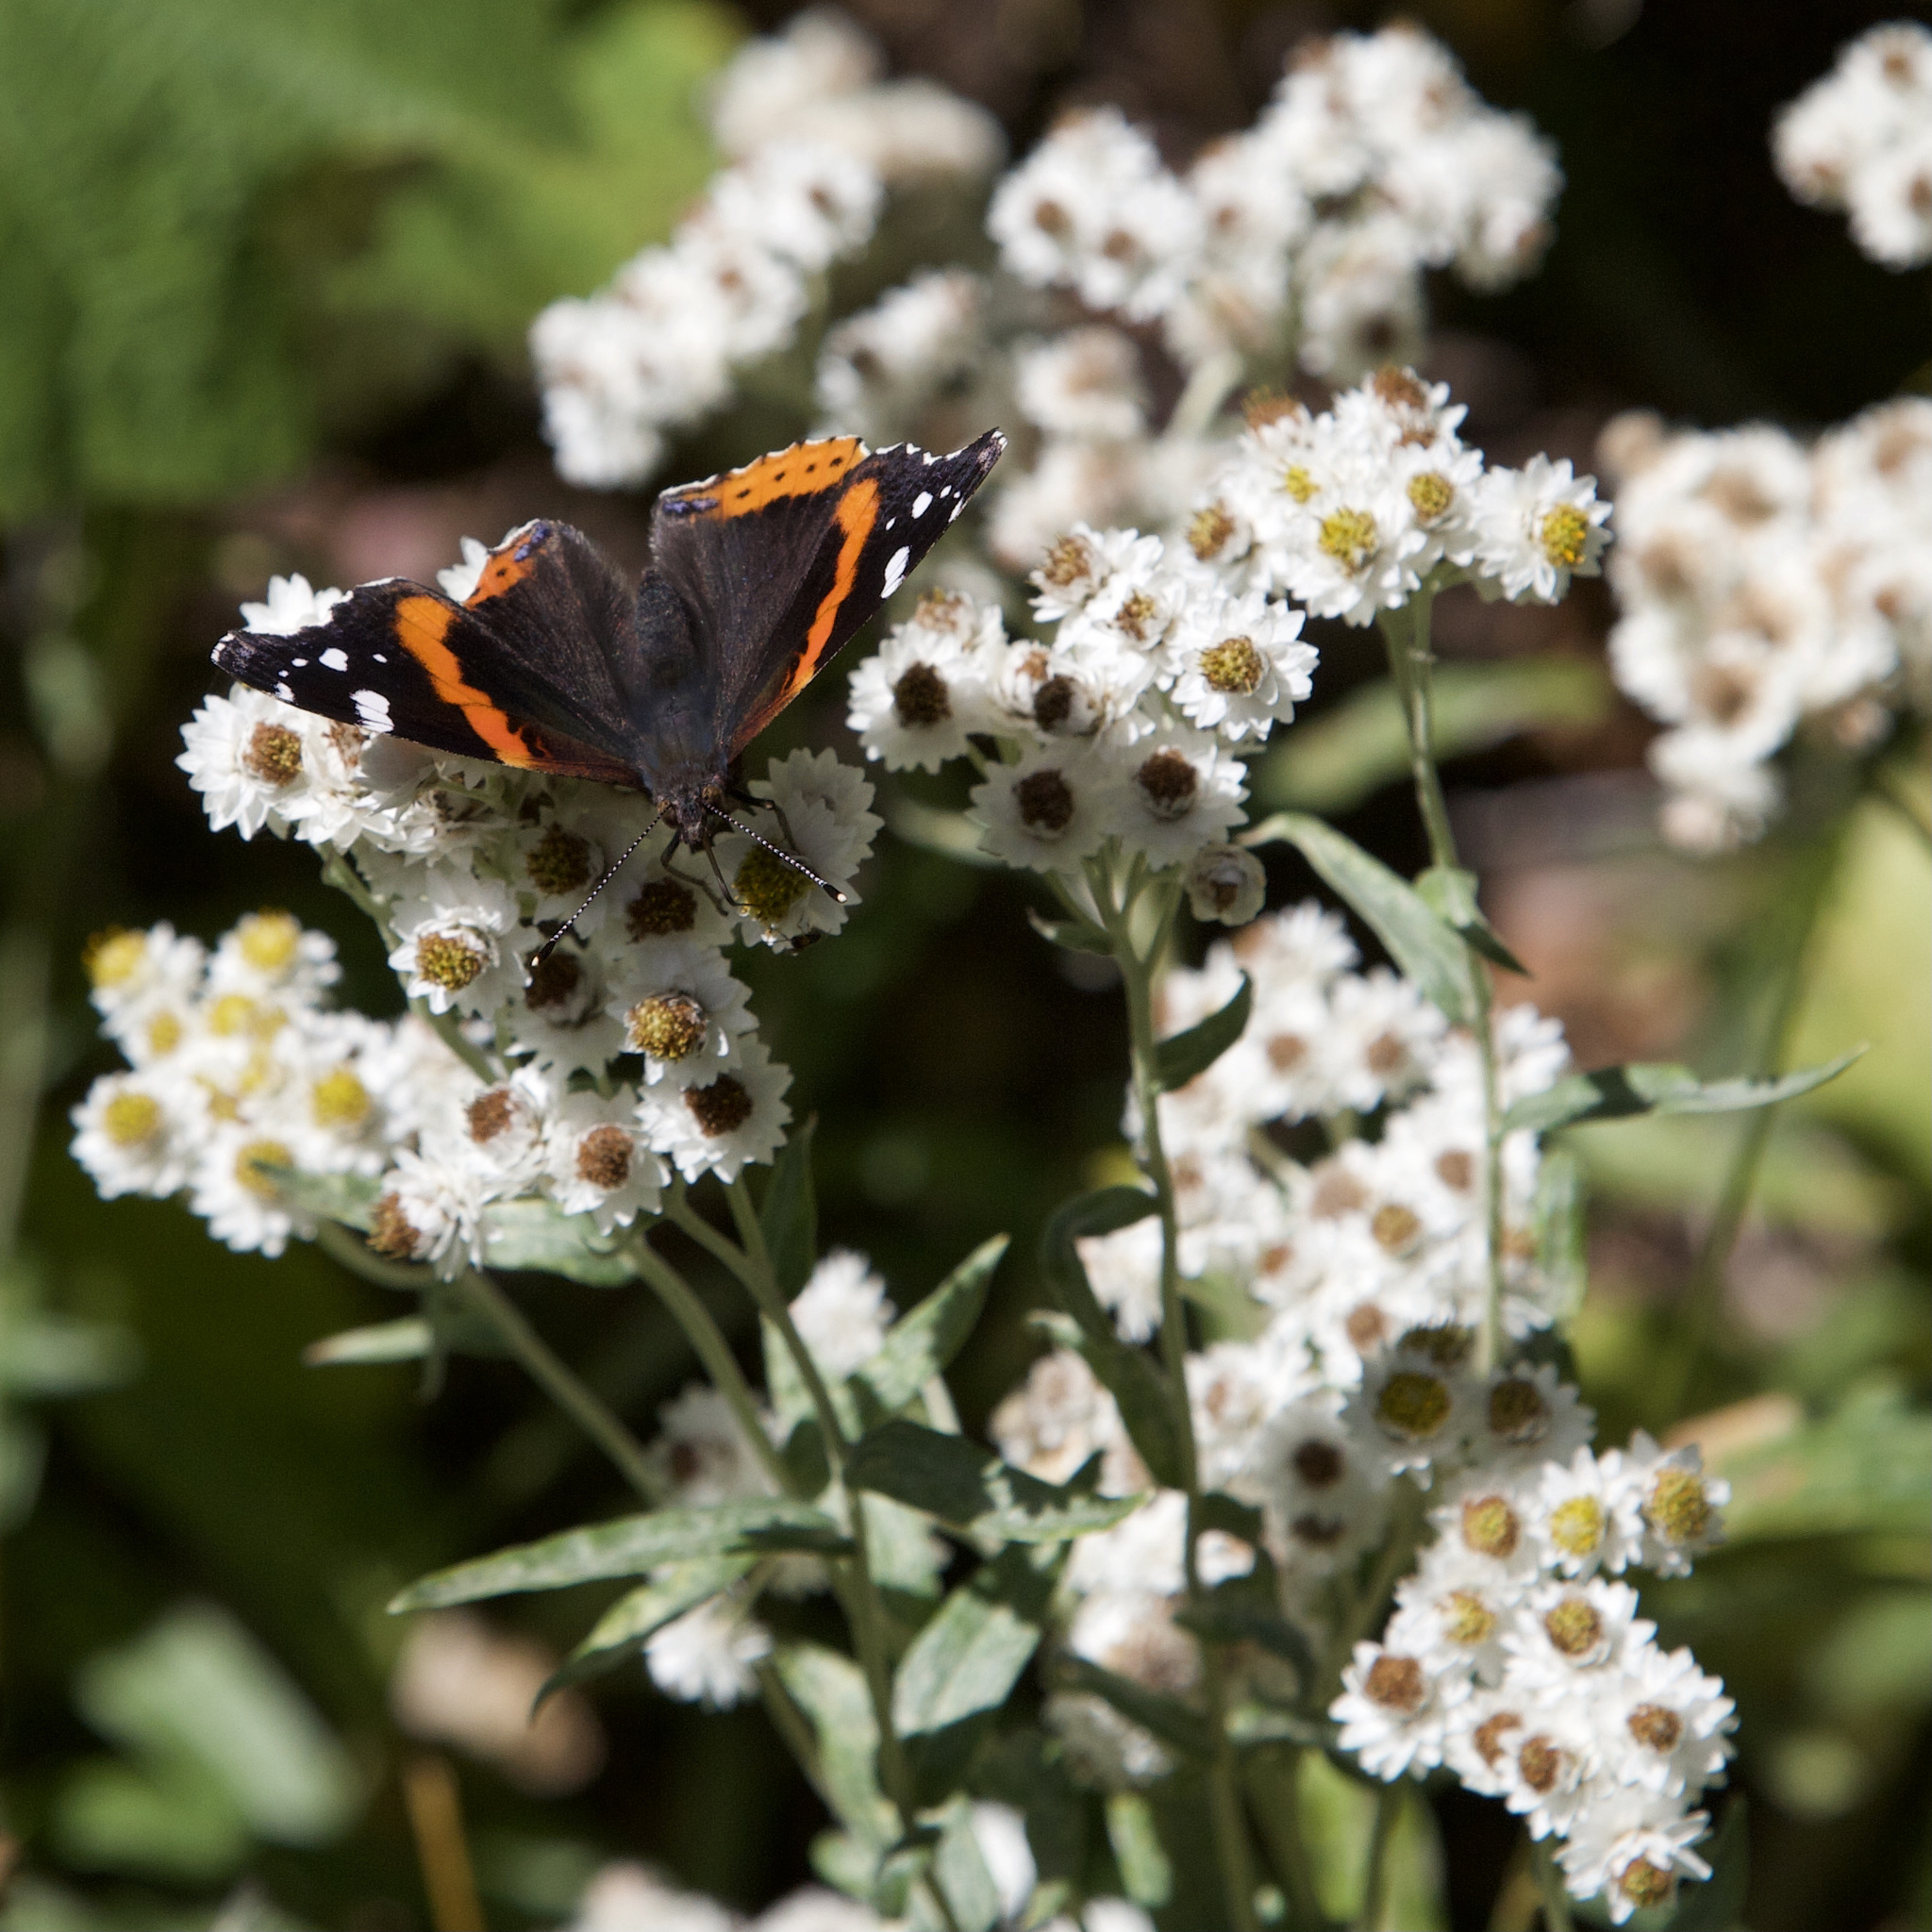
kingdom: Animalia
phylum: Arthropoda
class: Insecta
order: Lepidoptera
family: Nymphalidae
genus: Vanessa
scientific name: Vanessa atalanta
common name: Red admiral
